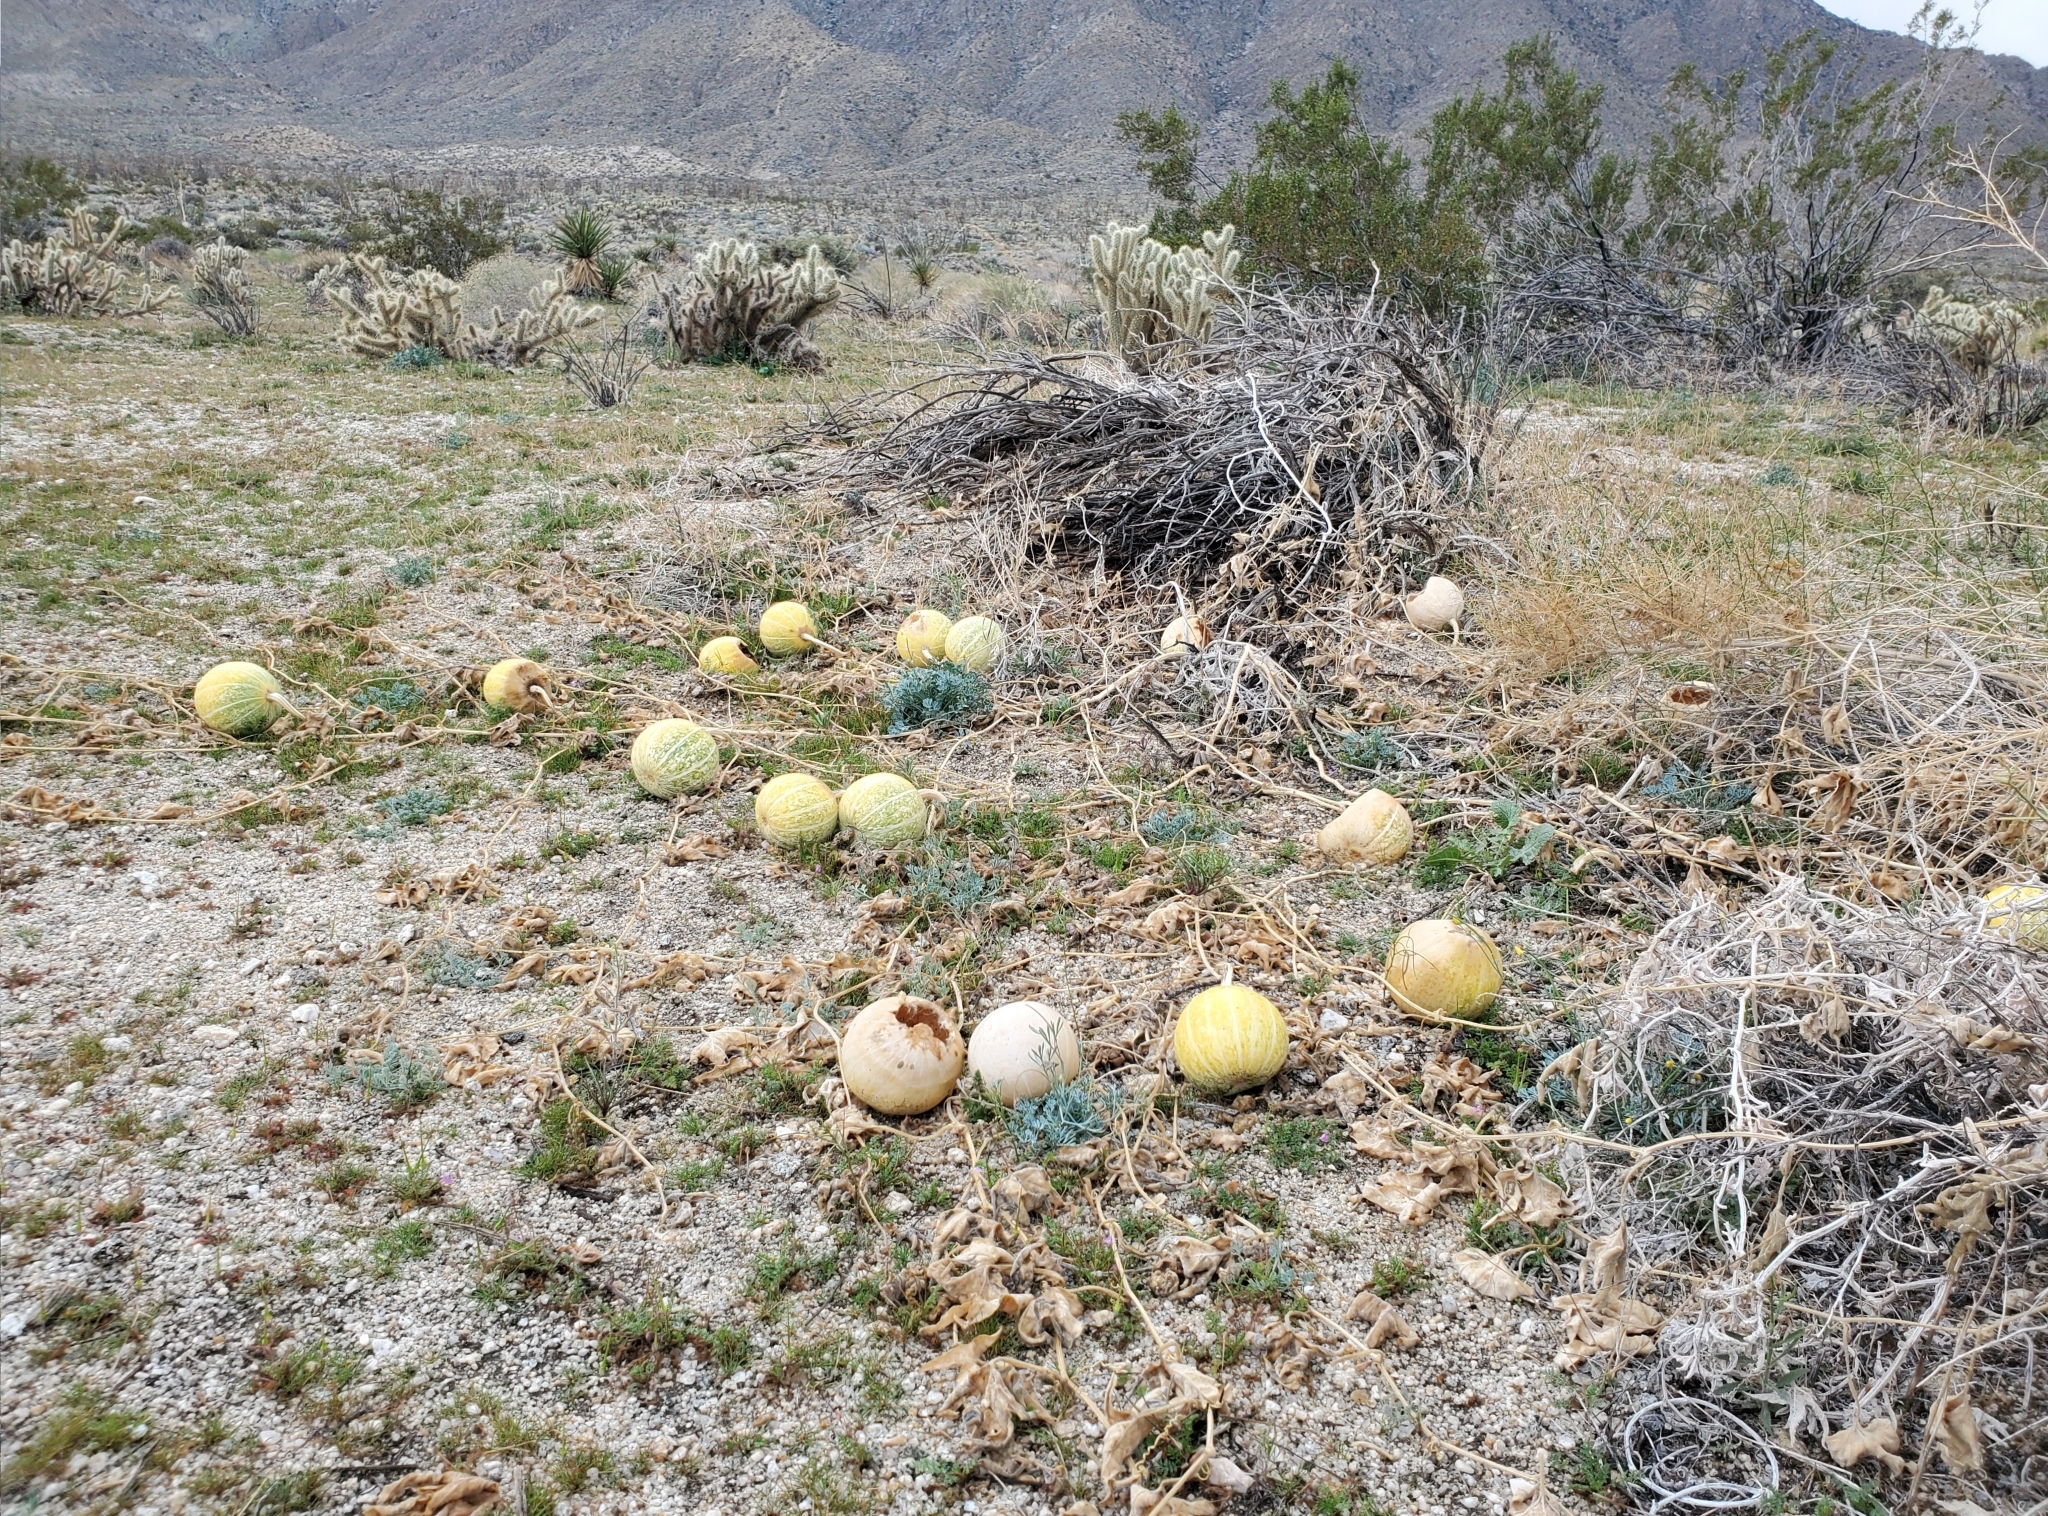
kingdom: Plantae
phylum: Tracheophyta
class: Magnoliopsida
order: Cucurbitales
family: Cucurbitaceae
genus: Cucurbita
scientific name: Cucurbita palmata
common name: Coyote-melon
